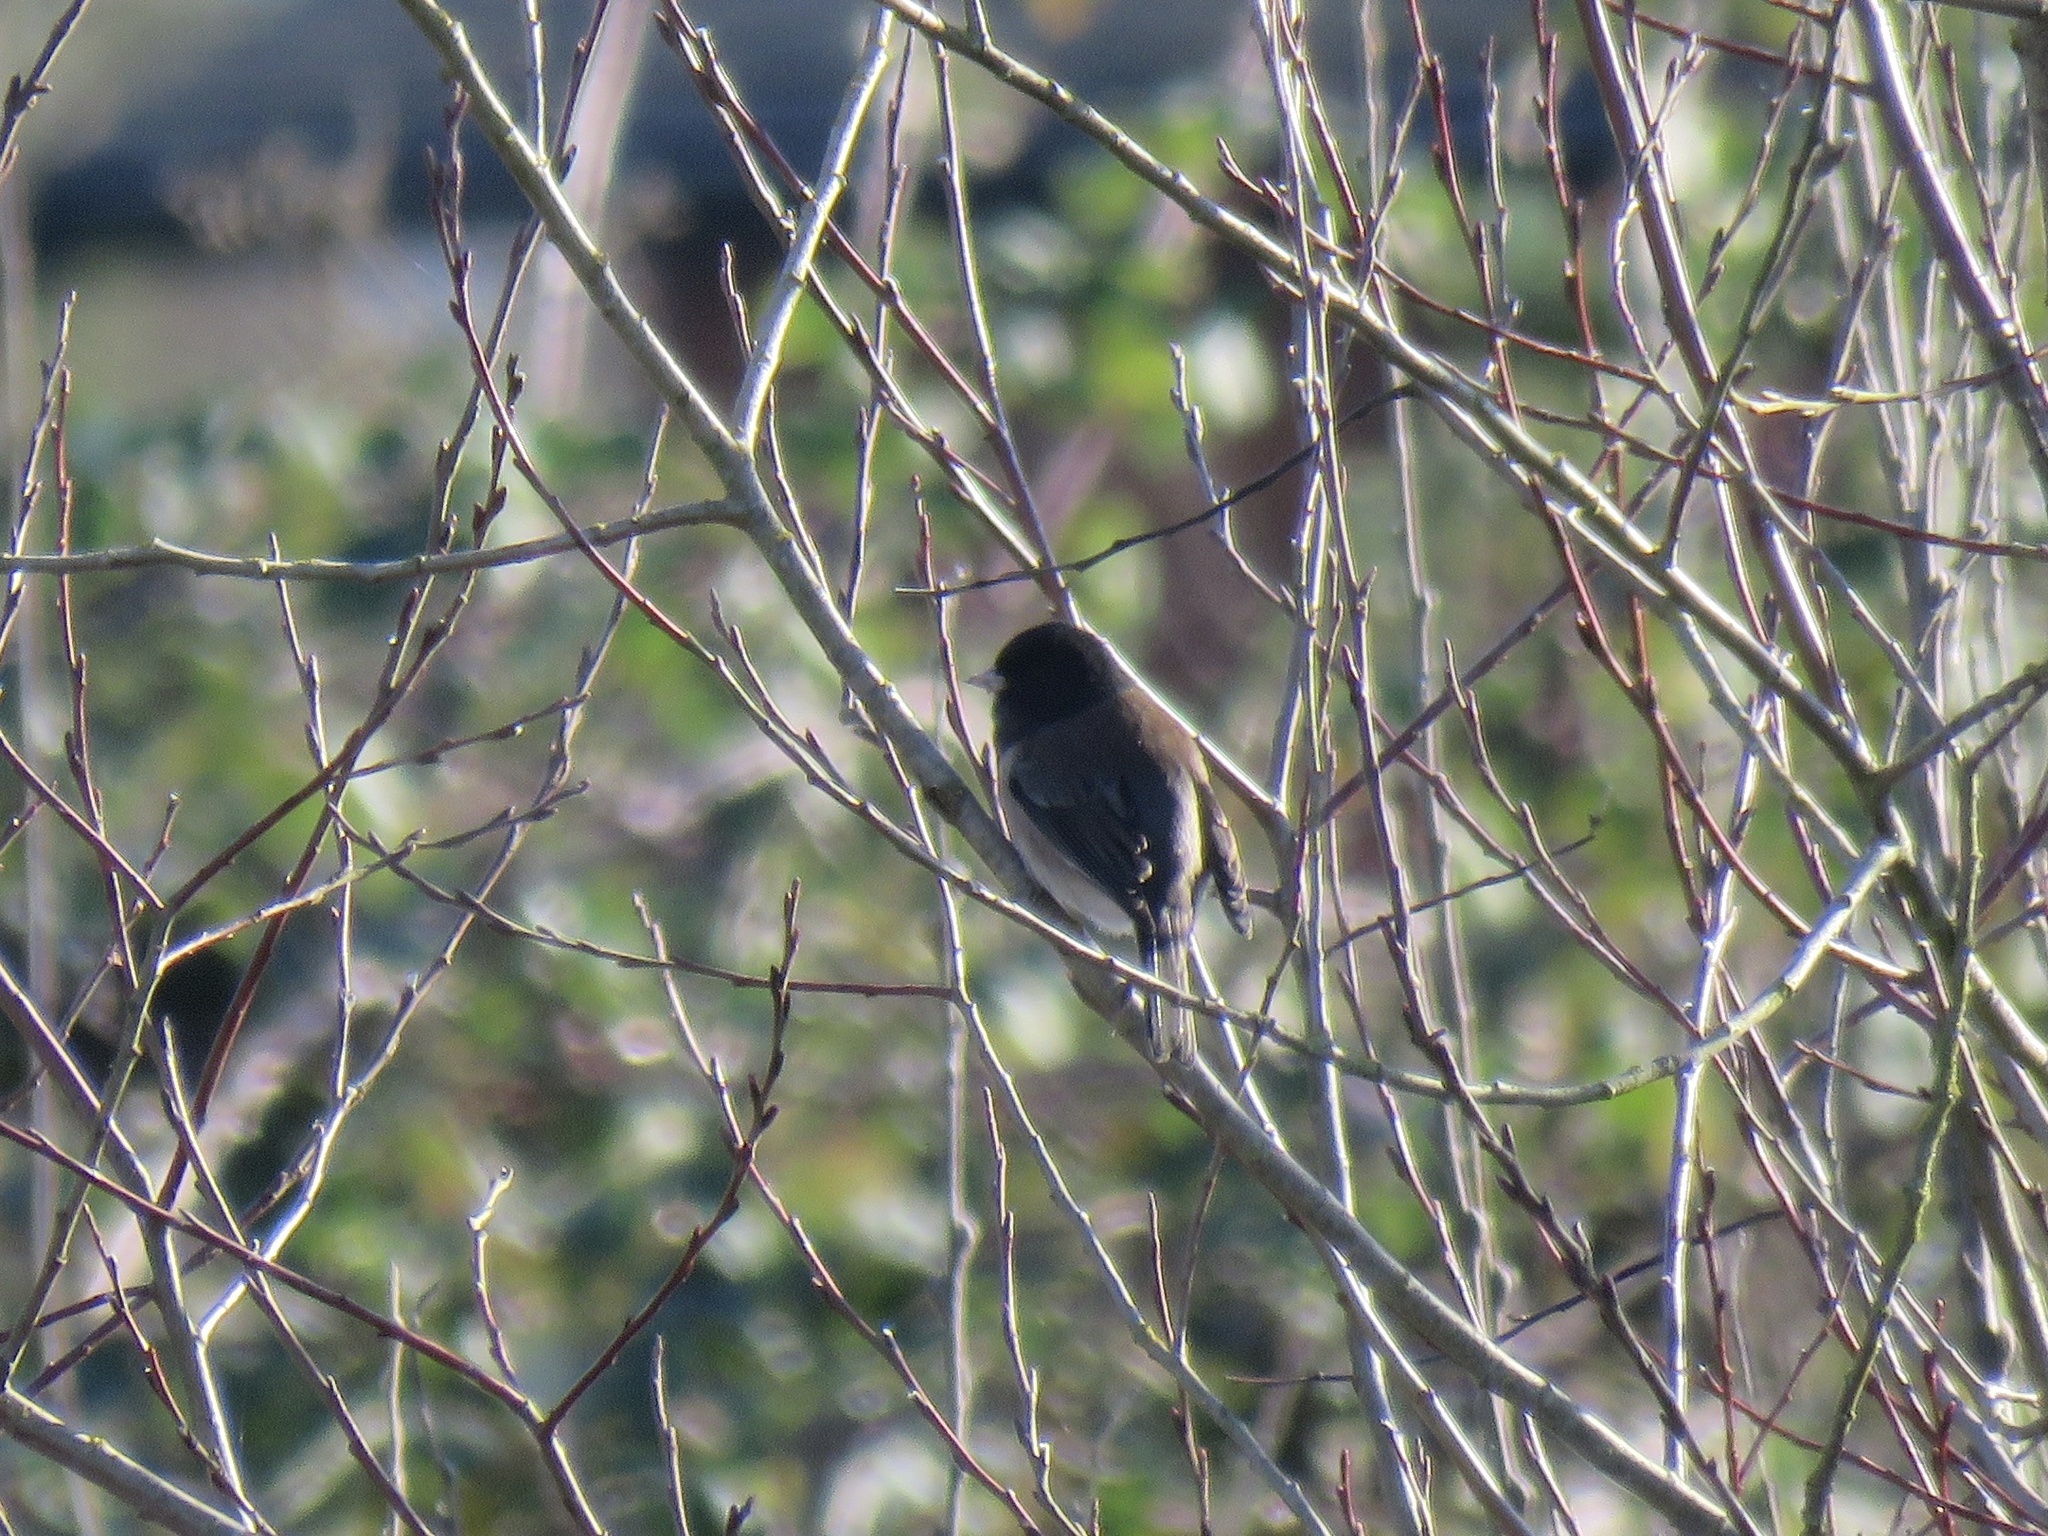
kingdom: Animalia
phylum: Chordata
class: Aves
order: Passeriformes
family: Passerellidae
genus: Junco
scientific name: Junco hyemalis
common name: Dark-eyed junco
